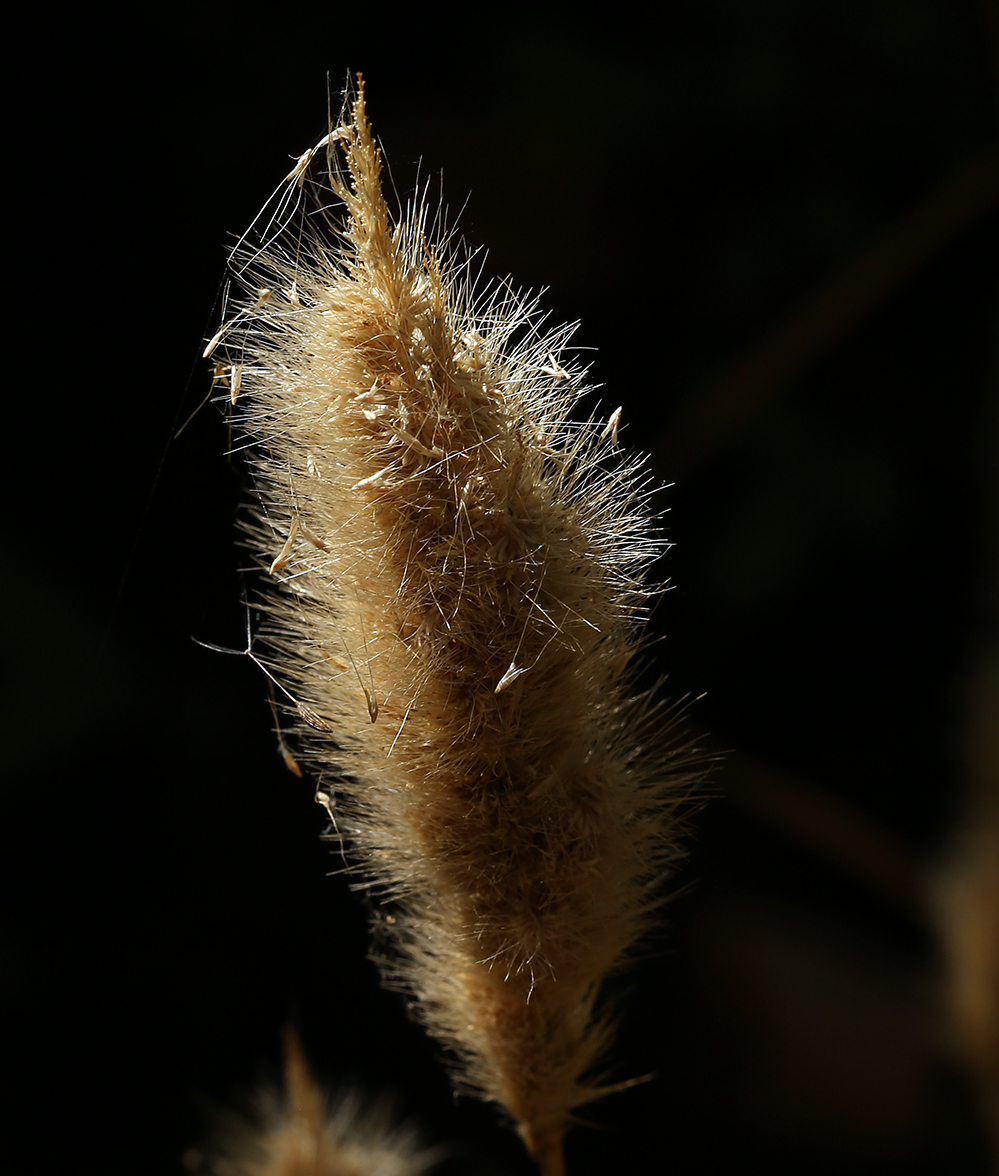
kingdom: Plantae
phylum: Tracheophyta
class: Liliopsida
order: Poales
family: Poaceae
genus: Polypogon
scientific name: Polypogon monspeliensis
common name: Annual rabbitsfoot grass
